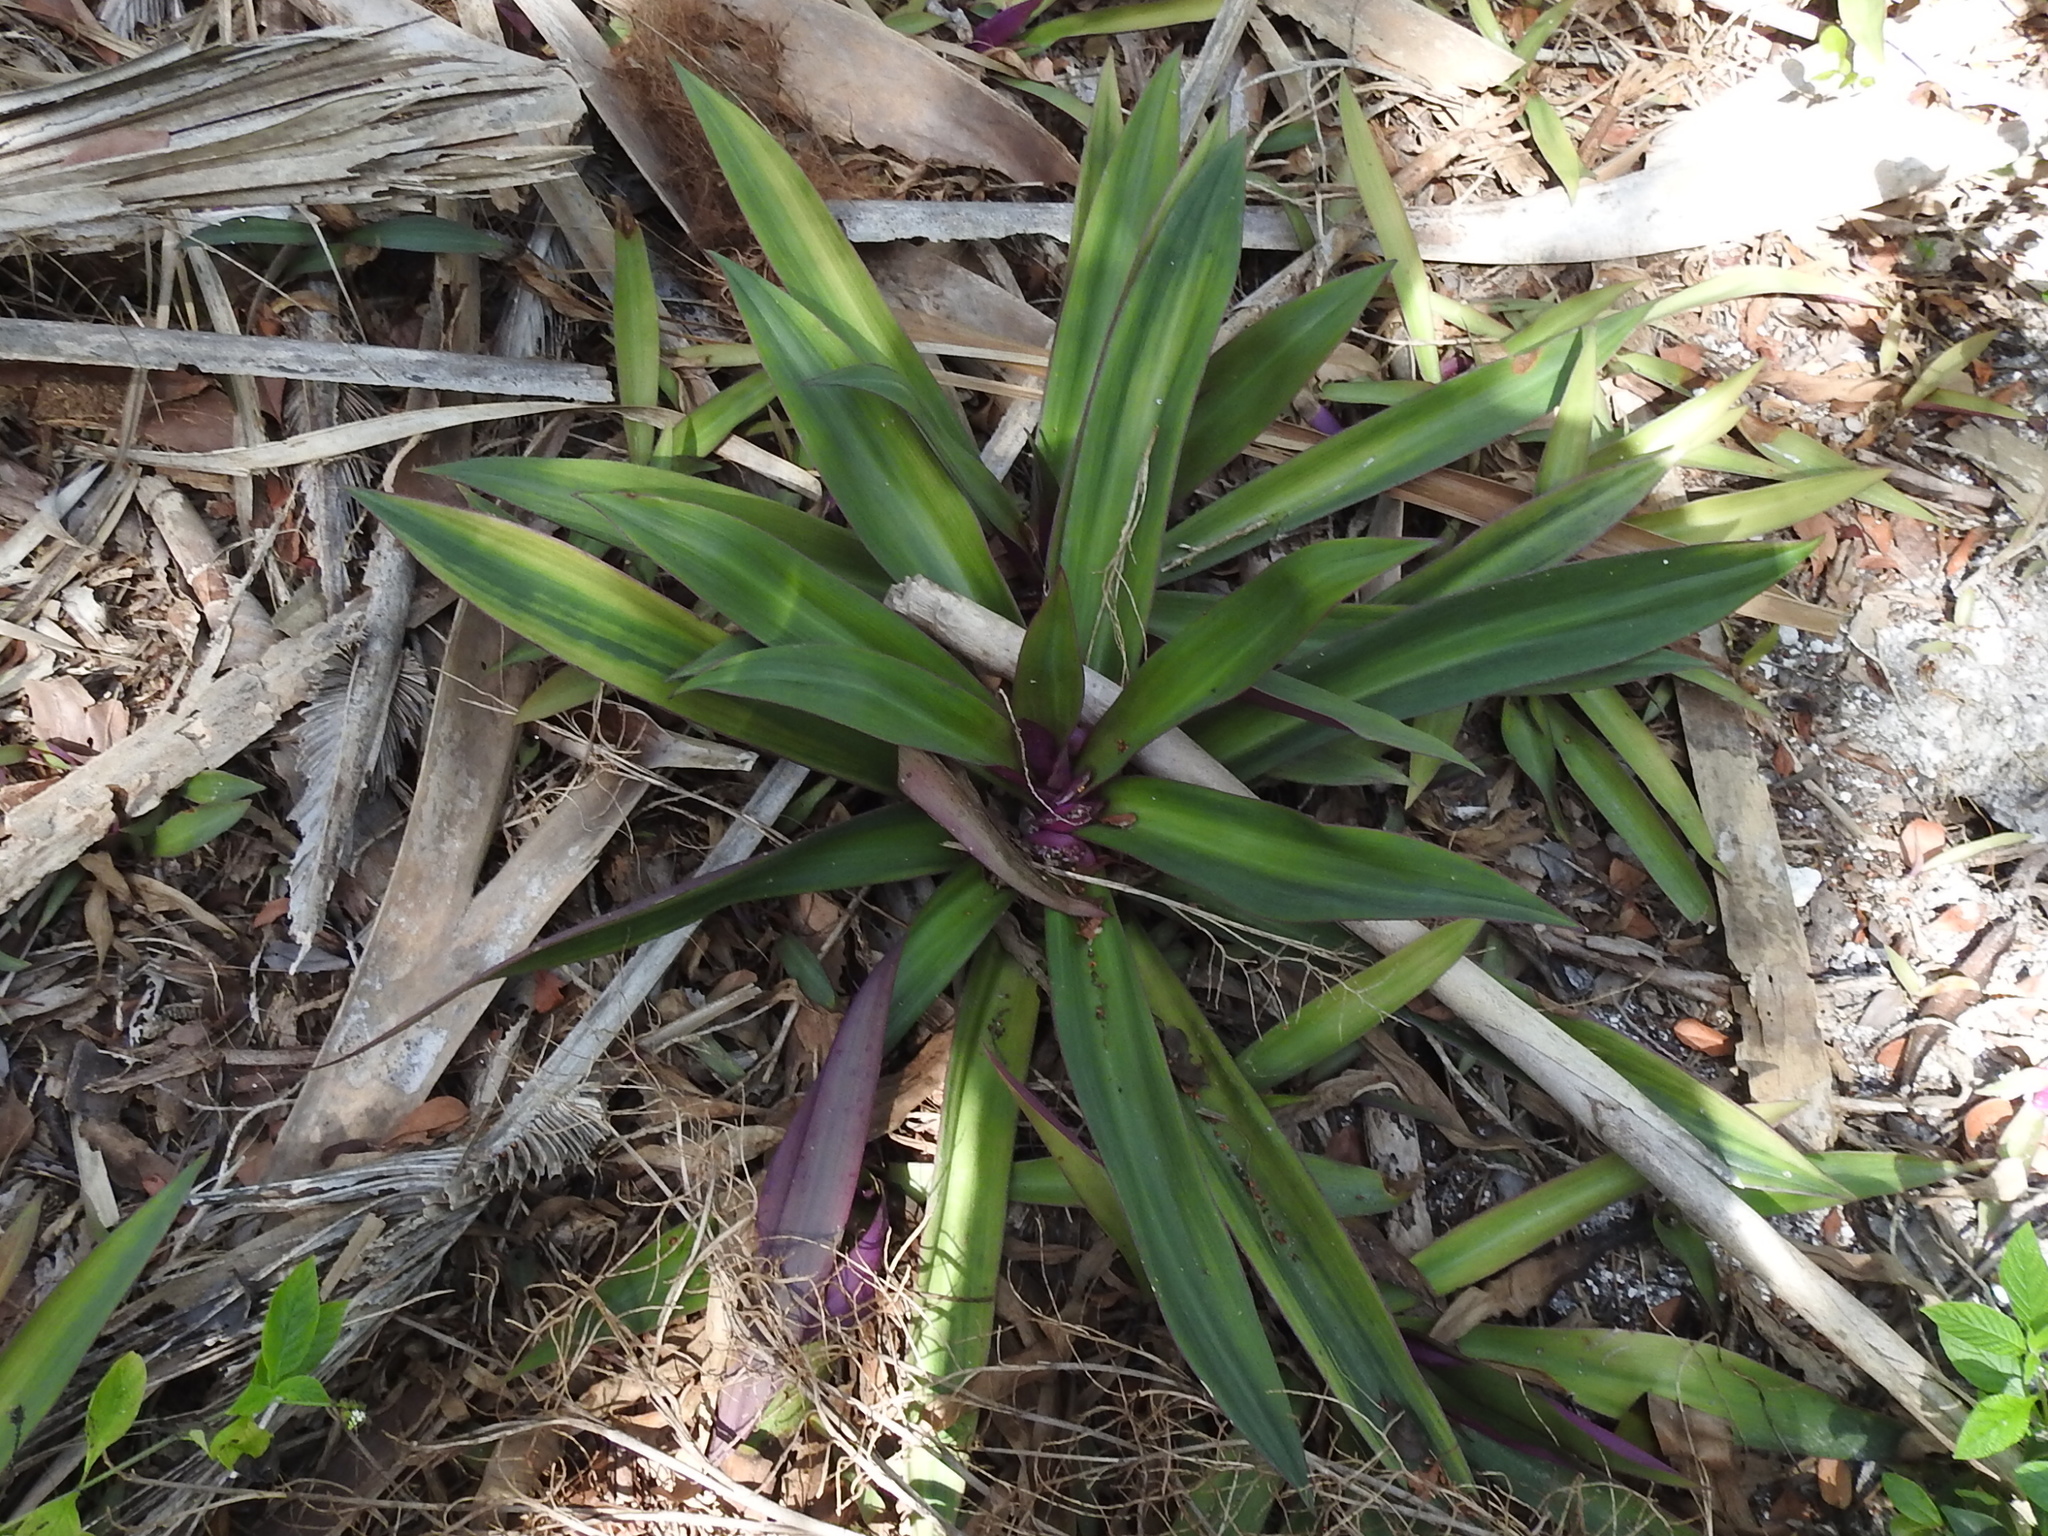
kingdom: Plantae
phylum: Tracheophyta
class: Liliopsida
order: Commelinales
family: Commelinaceae
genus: Tradescantia
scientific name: Tradescantia spathacea
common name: Boatlily
